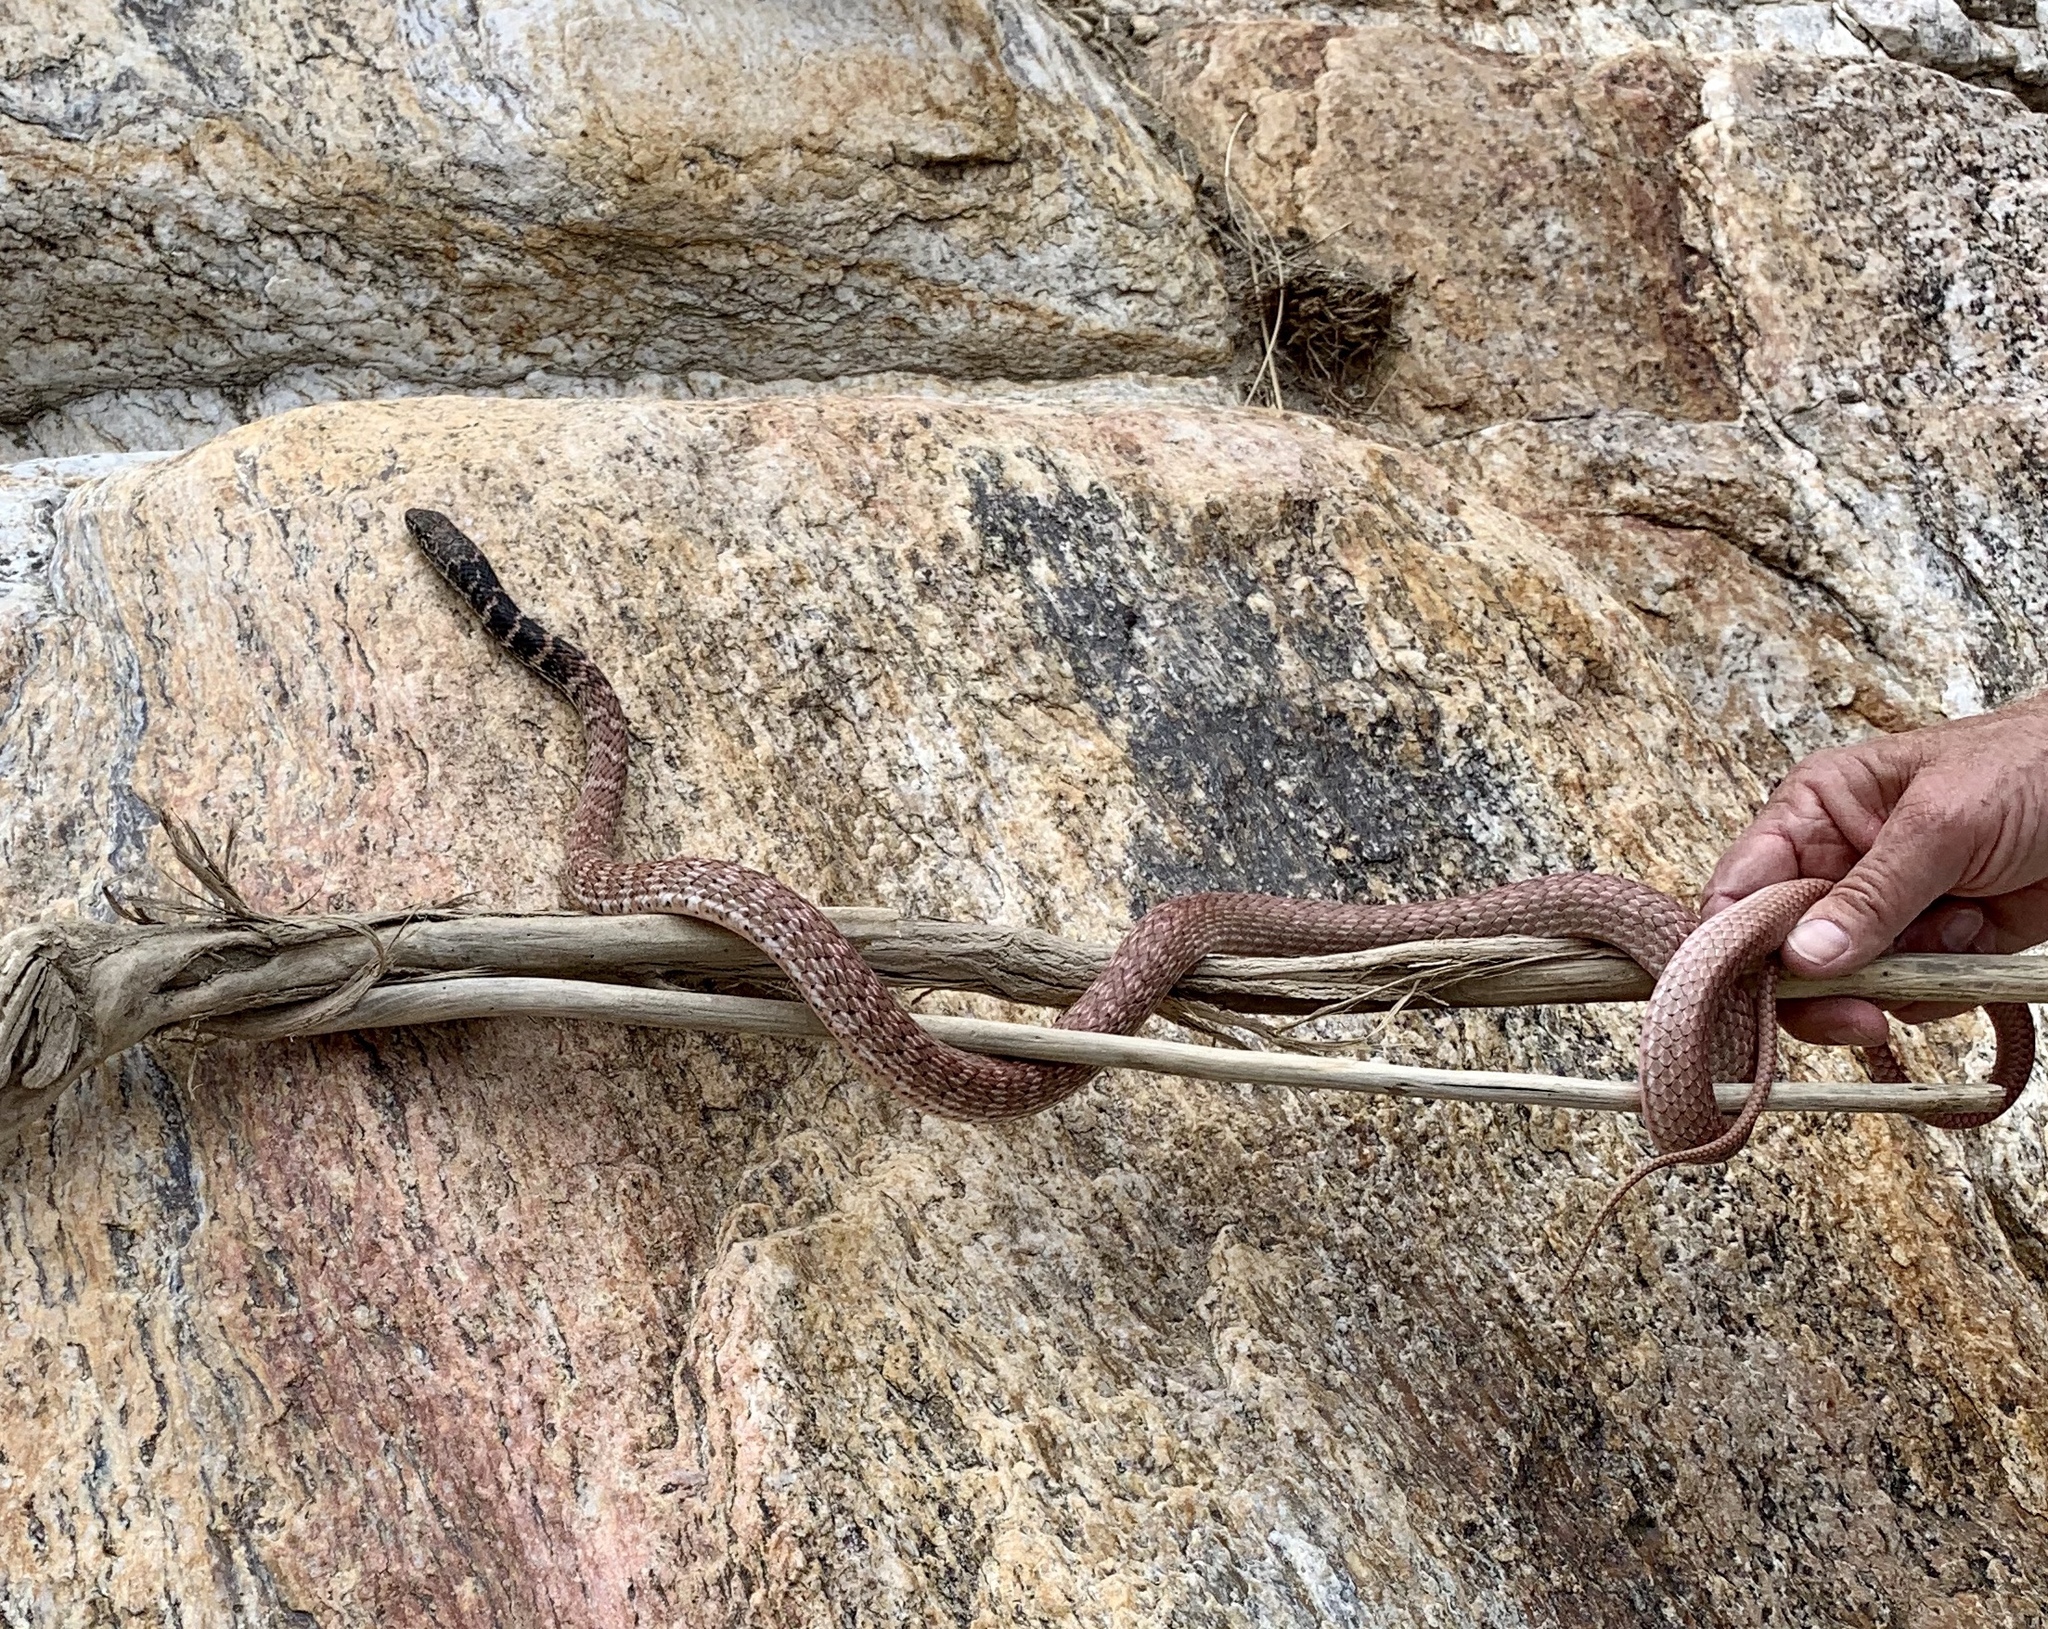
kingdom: Animalia
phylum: Chordata
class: Squamata
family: Colubridae
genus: Masticophis
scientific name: Masticophis flagellum
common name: Coachwhip
